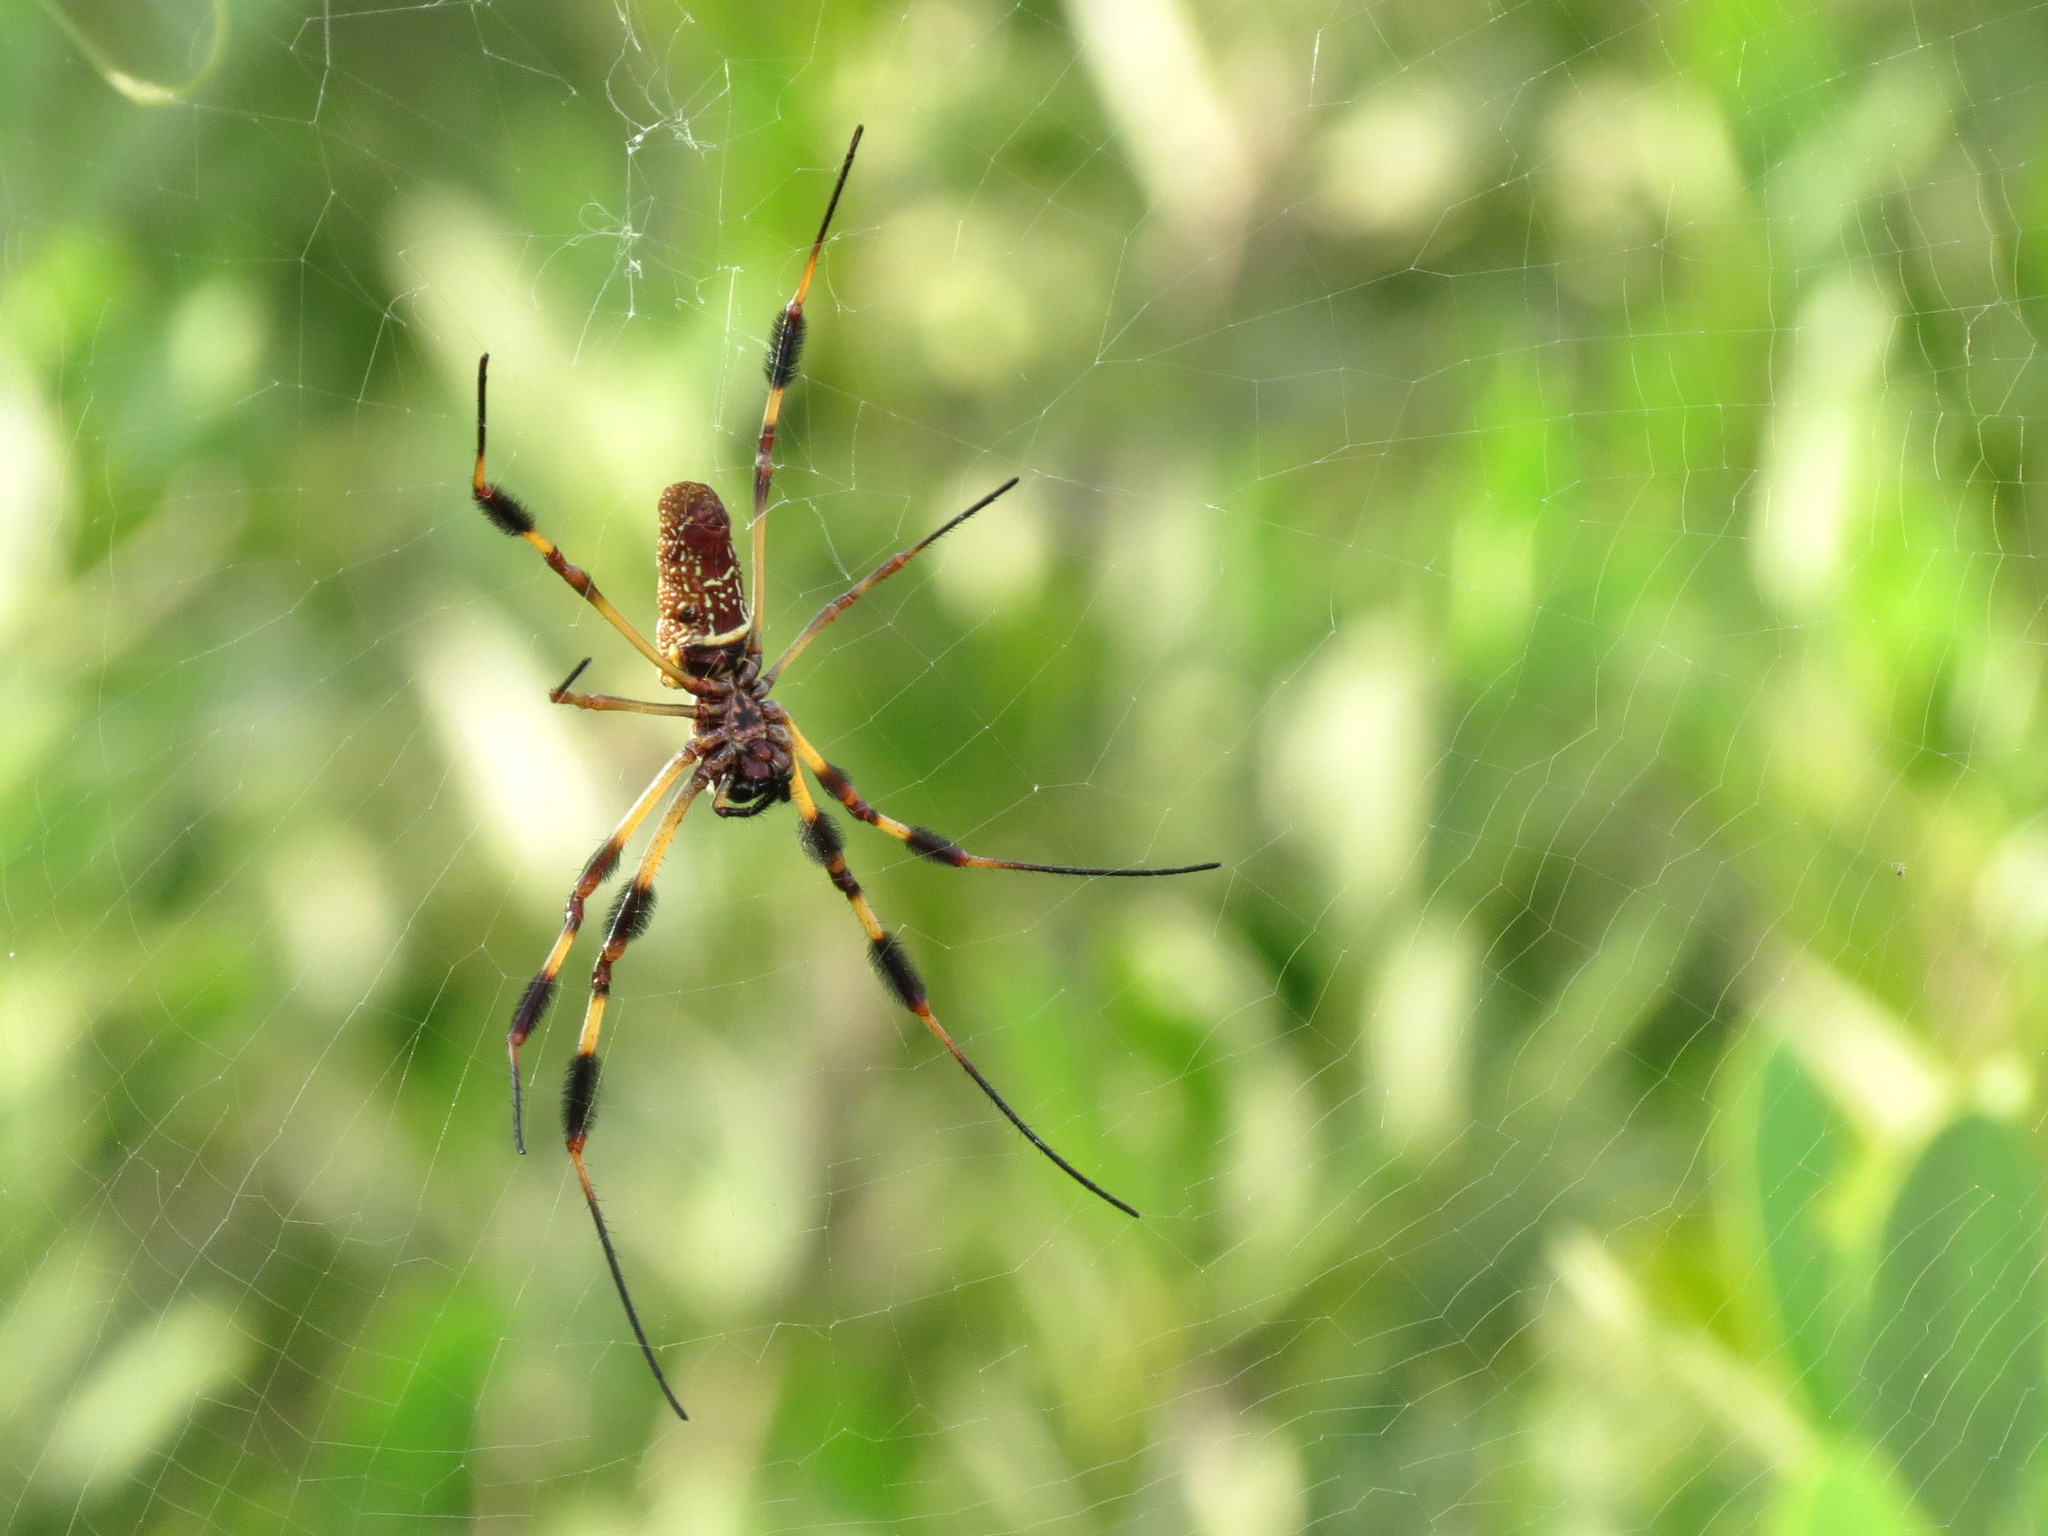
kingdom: Animalia
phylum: Arthropoda
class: Arachnida
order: Araneae
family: Araneidae
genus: Trichonephila
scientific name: Trichonephila clavipes
